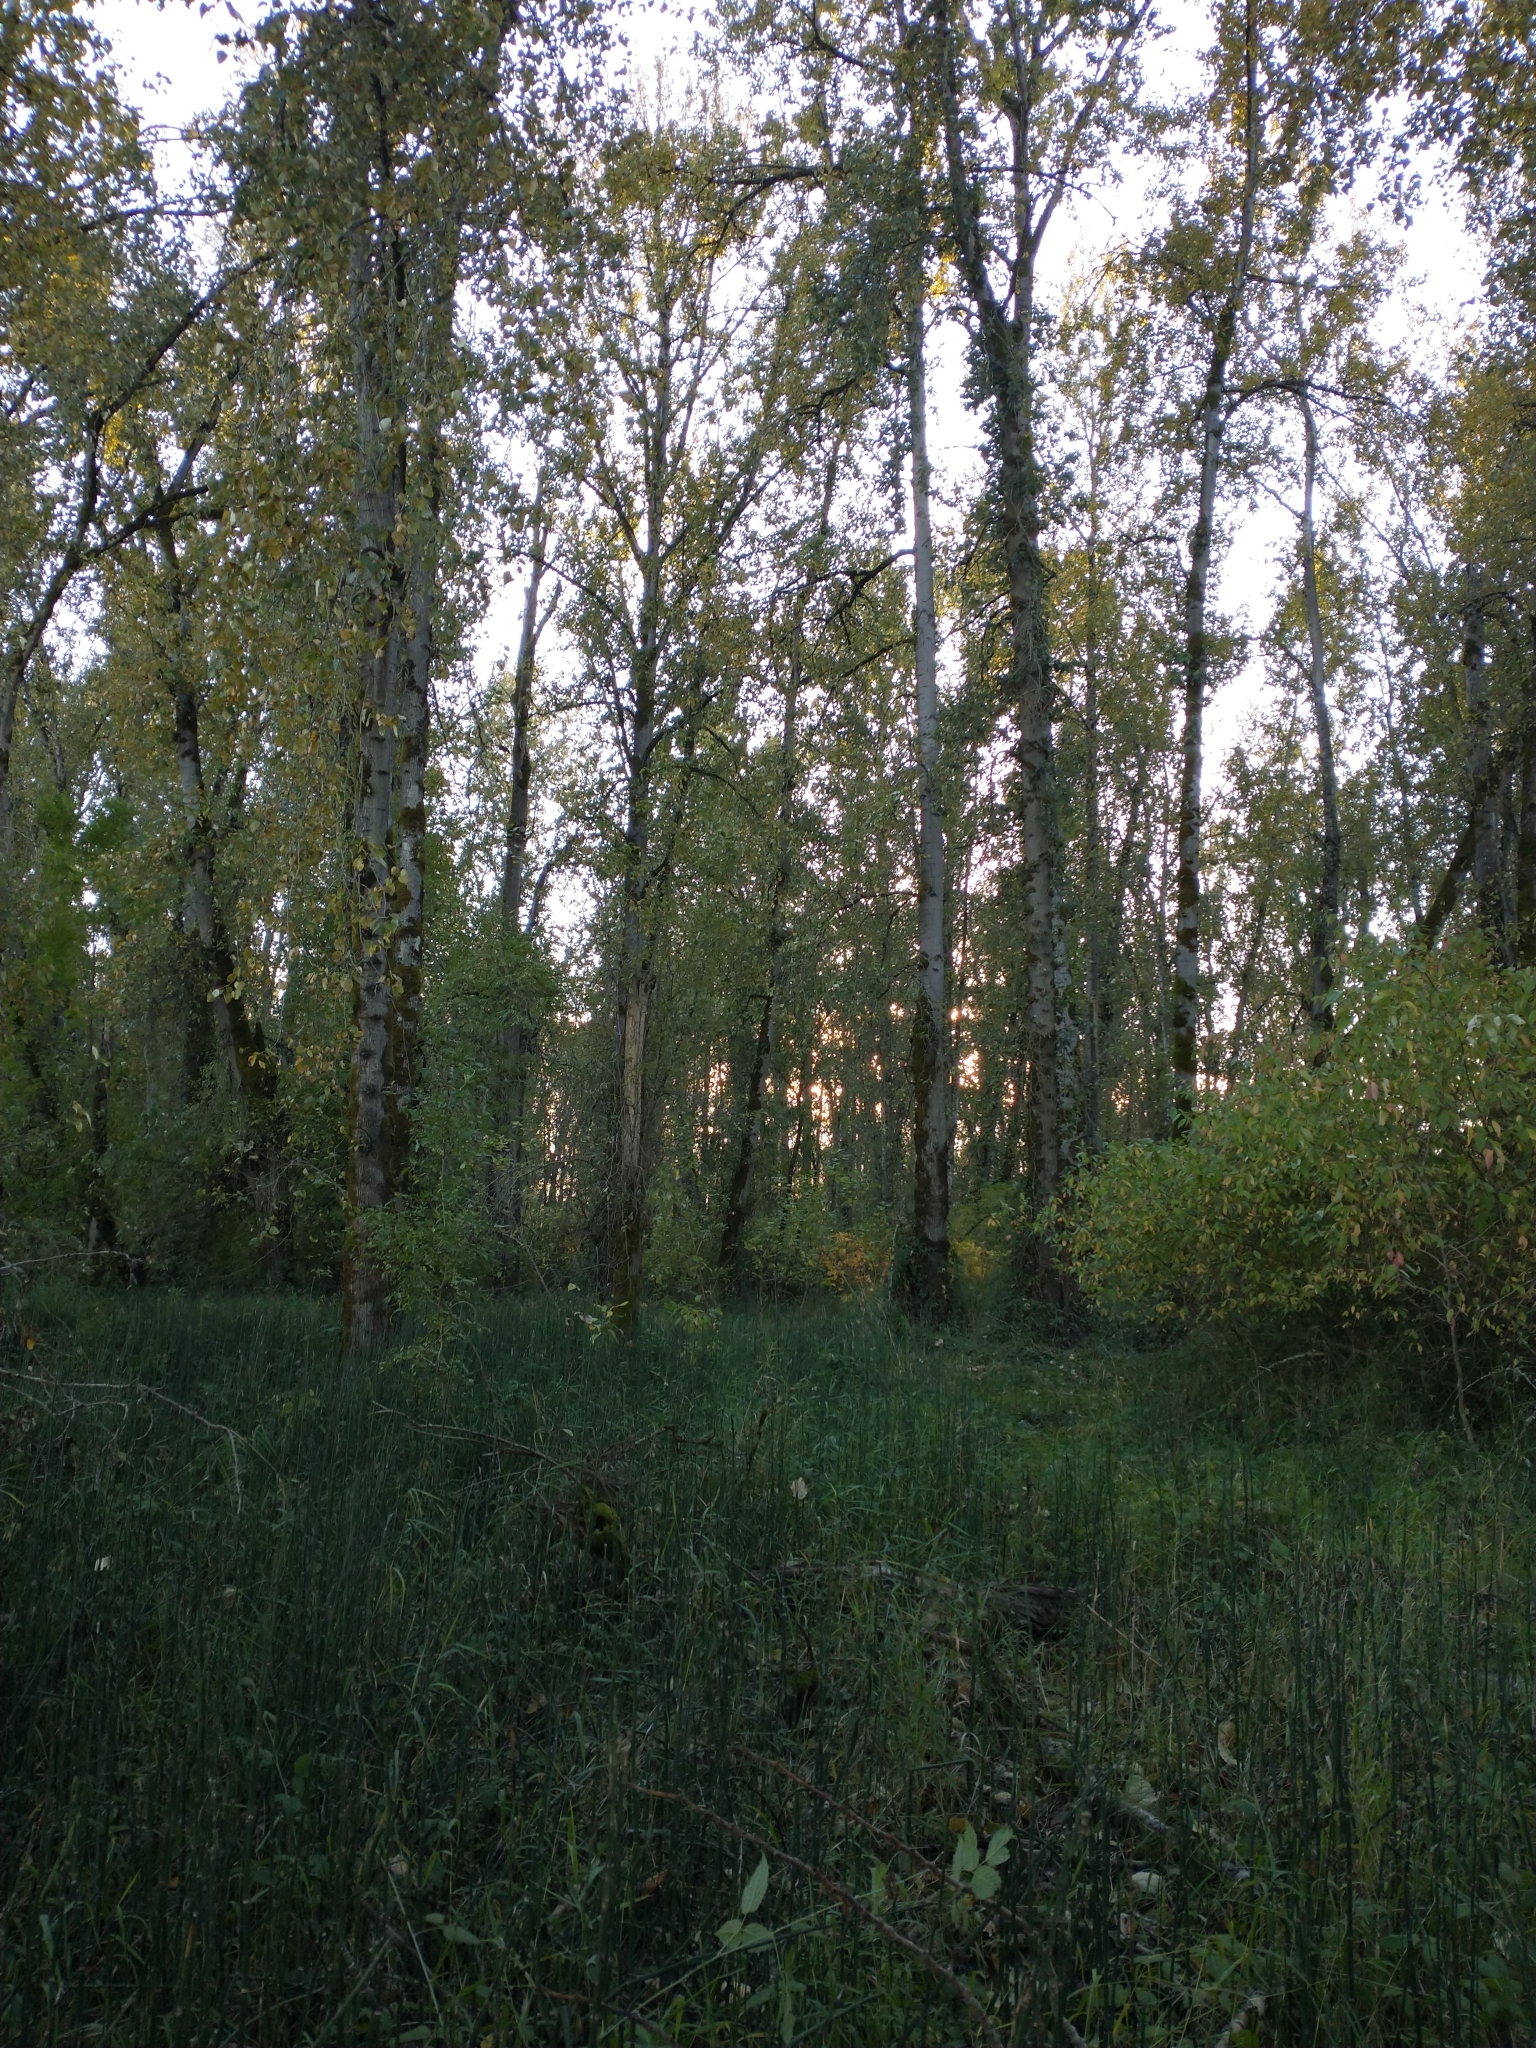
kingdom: Plantae
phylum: Tracheophyta
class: Magnoliopsida
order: Malpighiales
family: Salicaceae
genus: Populus
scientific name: Populus trichocarpa
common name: Black cottonwood
